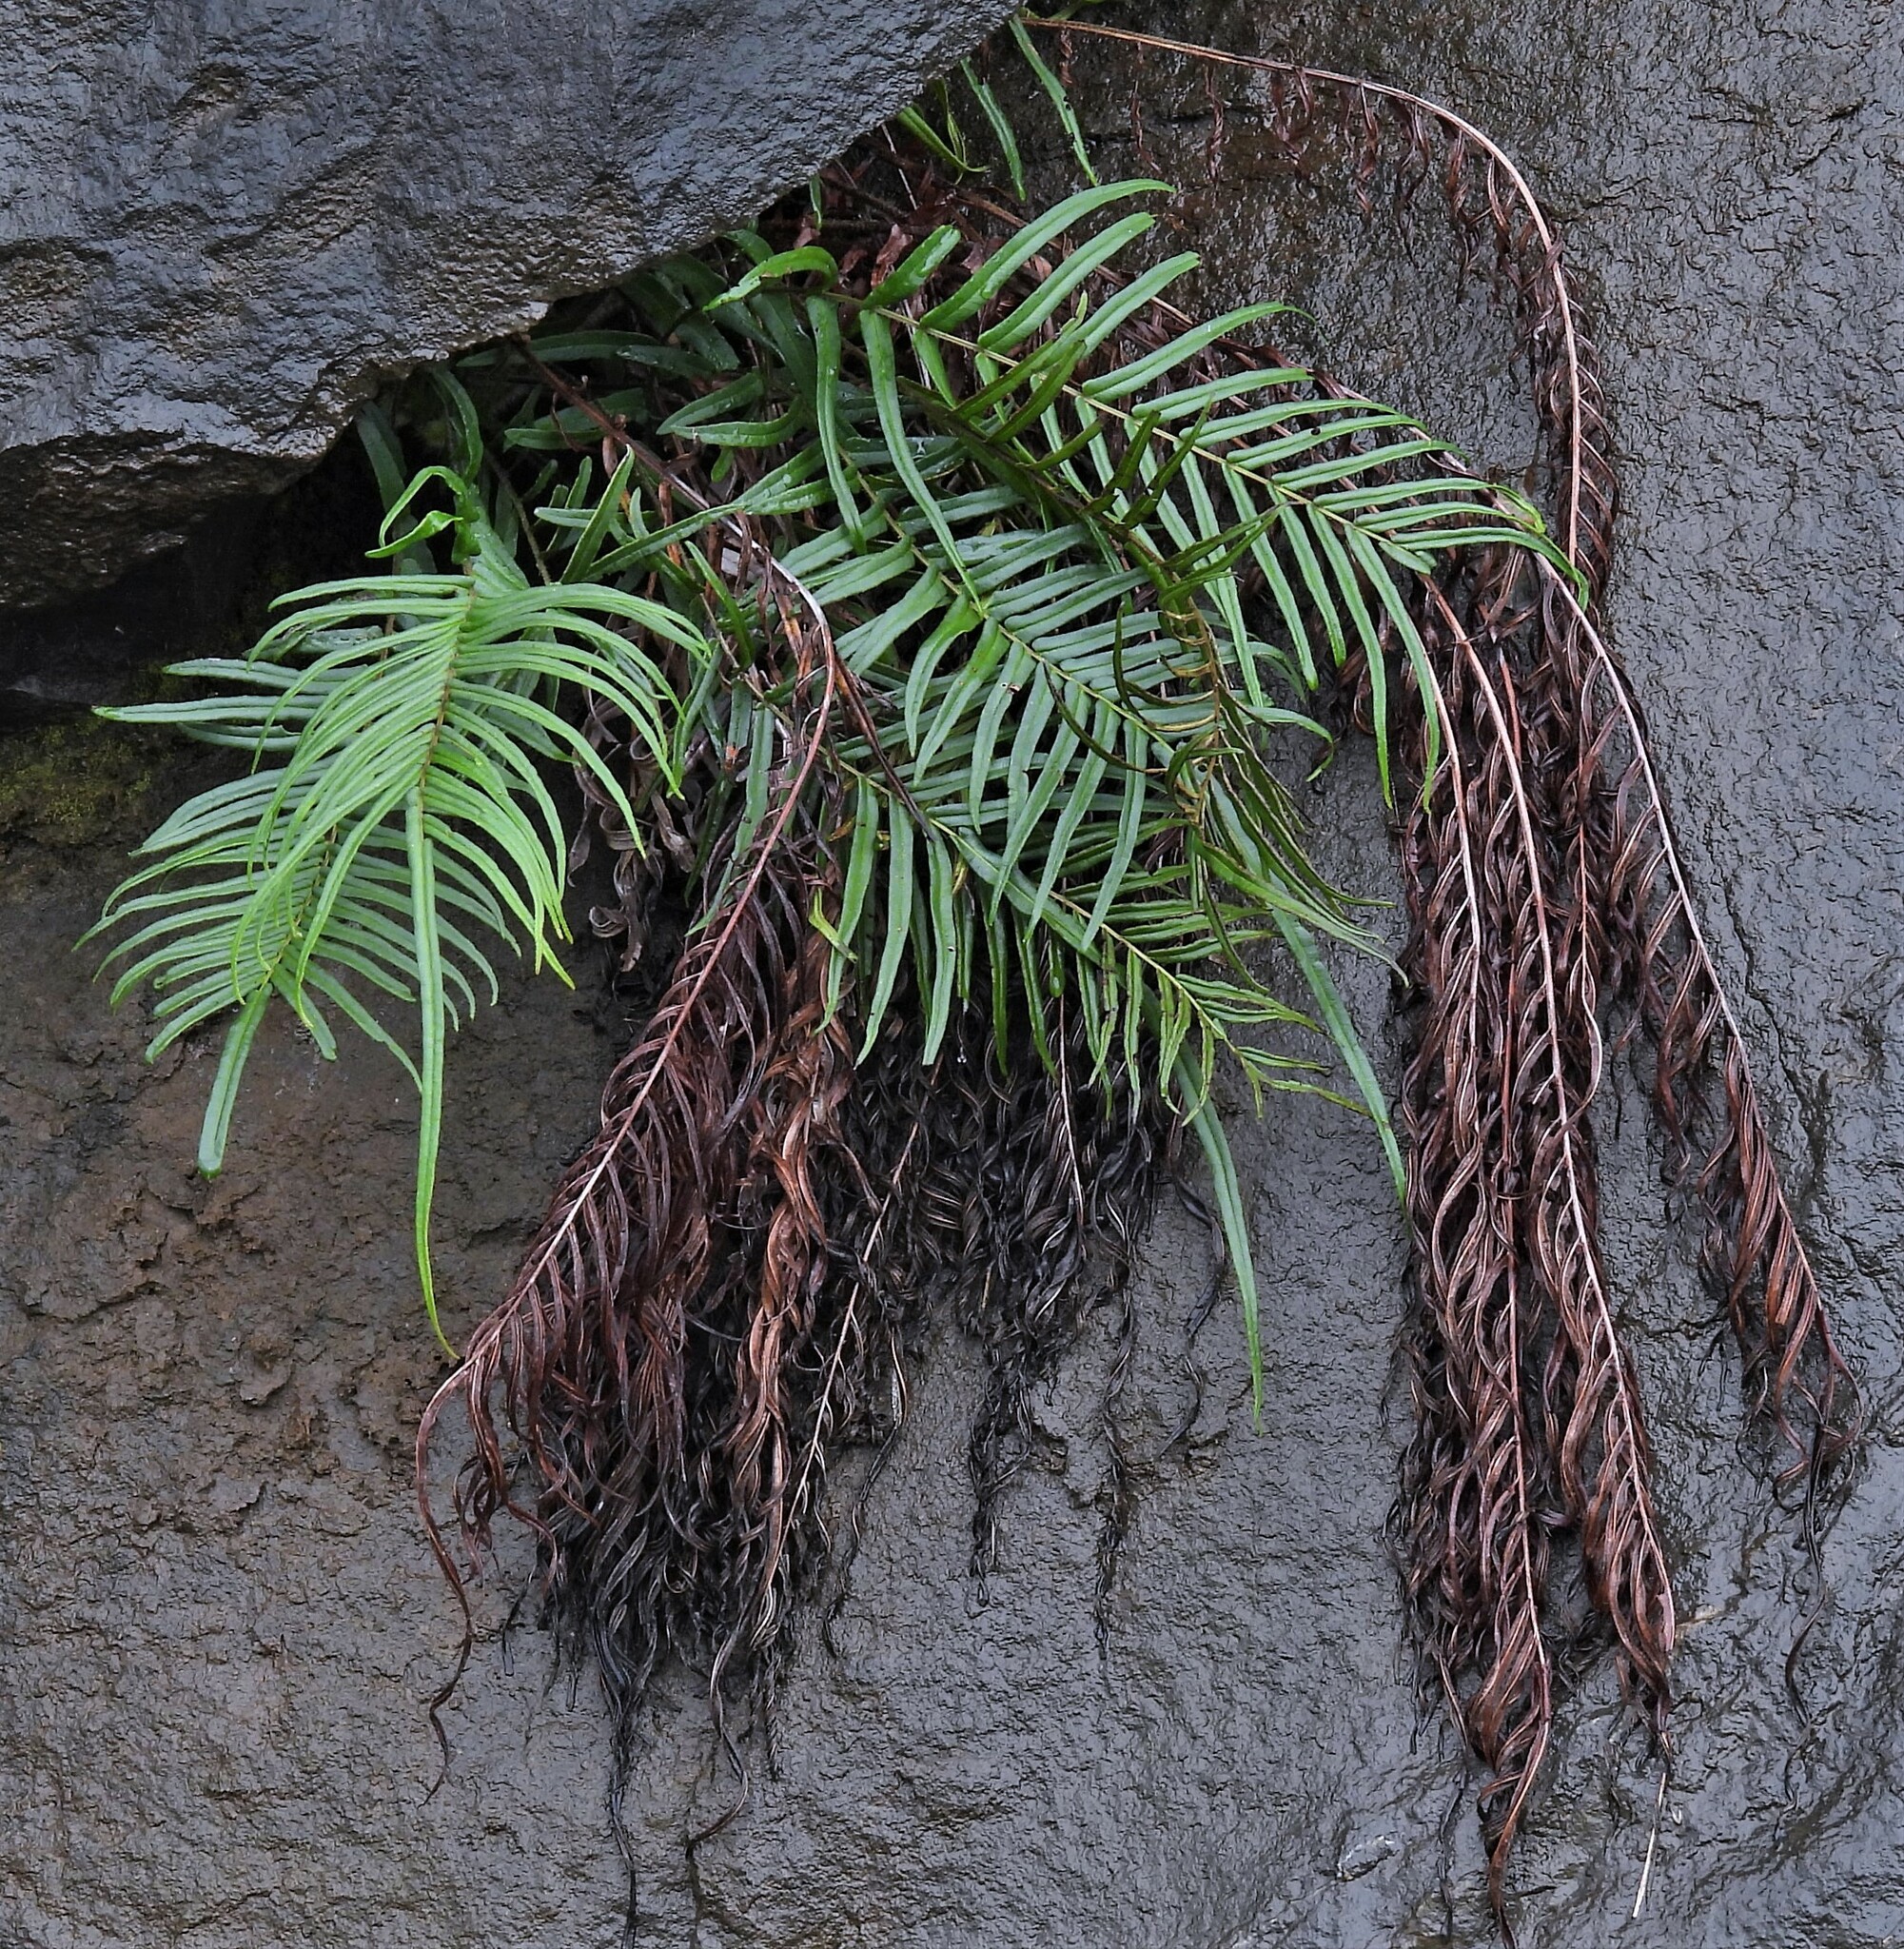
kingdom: Plantae
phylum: Tracheophyta
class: Polypodiopsida
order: Polypodiales
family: Pteridaceae
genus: Pteris
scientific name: Pteris vittata
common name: Ladder brake
